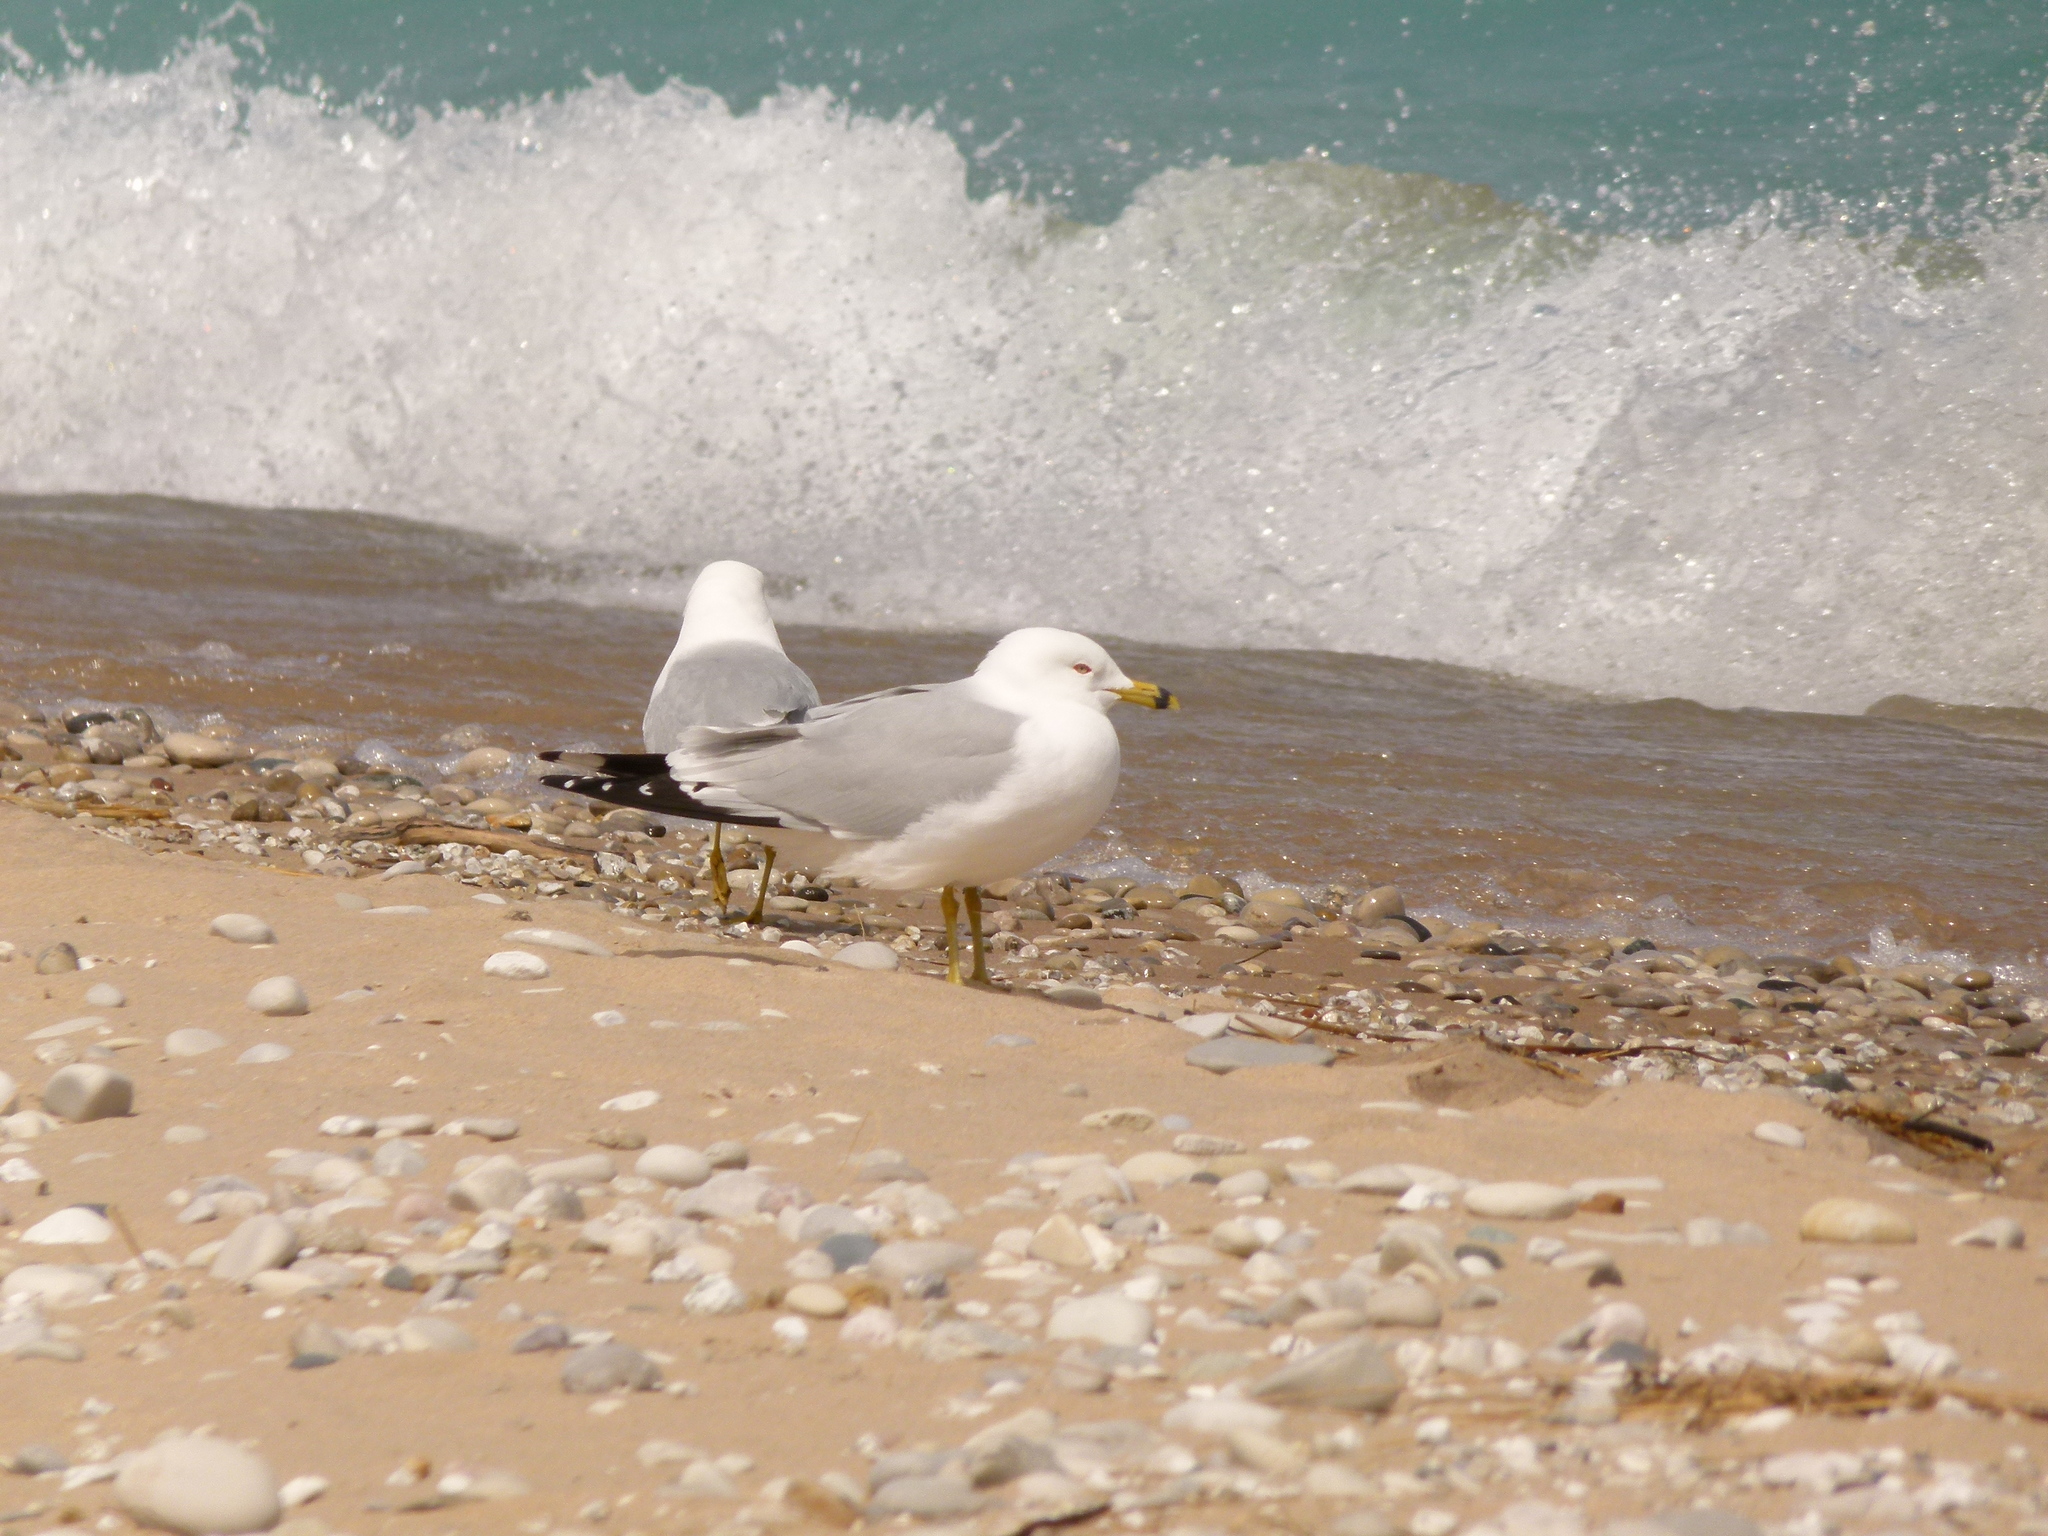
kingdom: Animalia
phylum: Chordata
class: Aves
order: Charadriiformes
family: Laridae
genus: Larus
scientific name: Larus delawarensis
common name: Ring-billed gull
